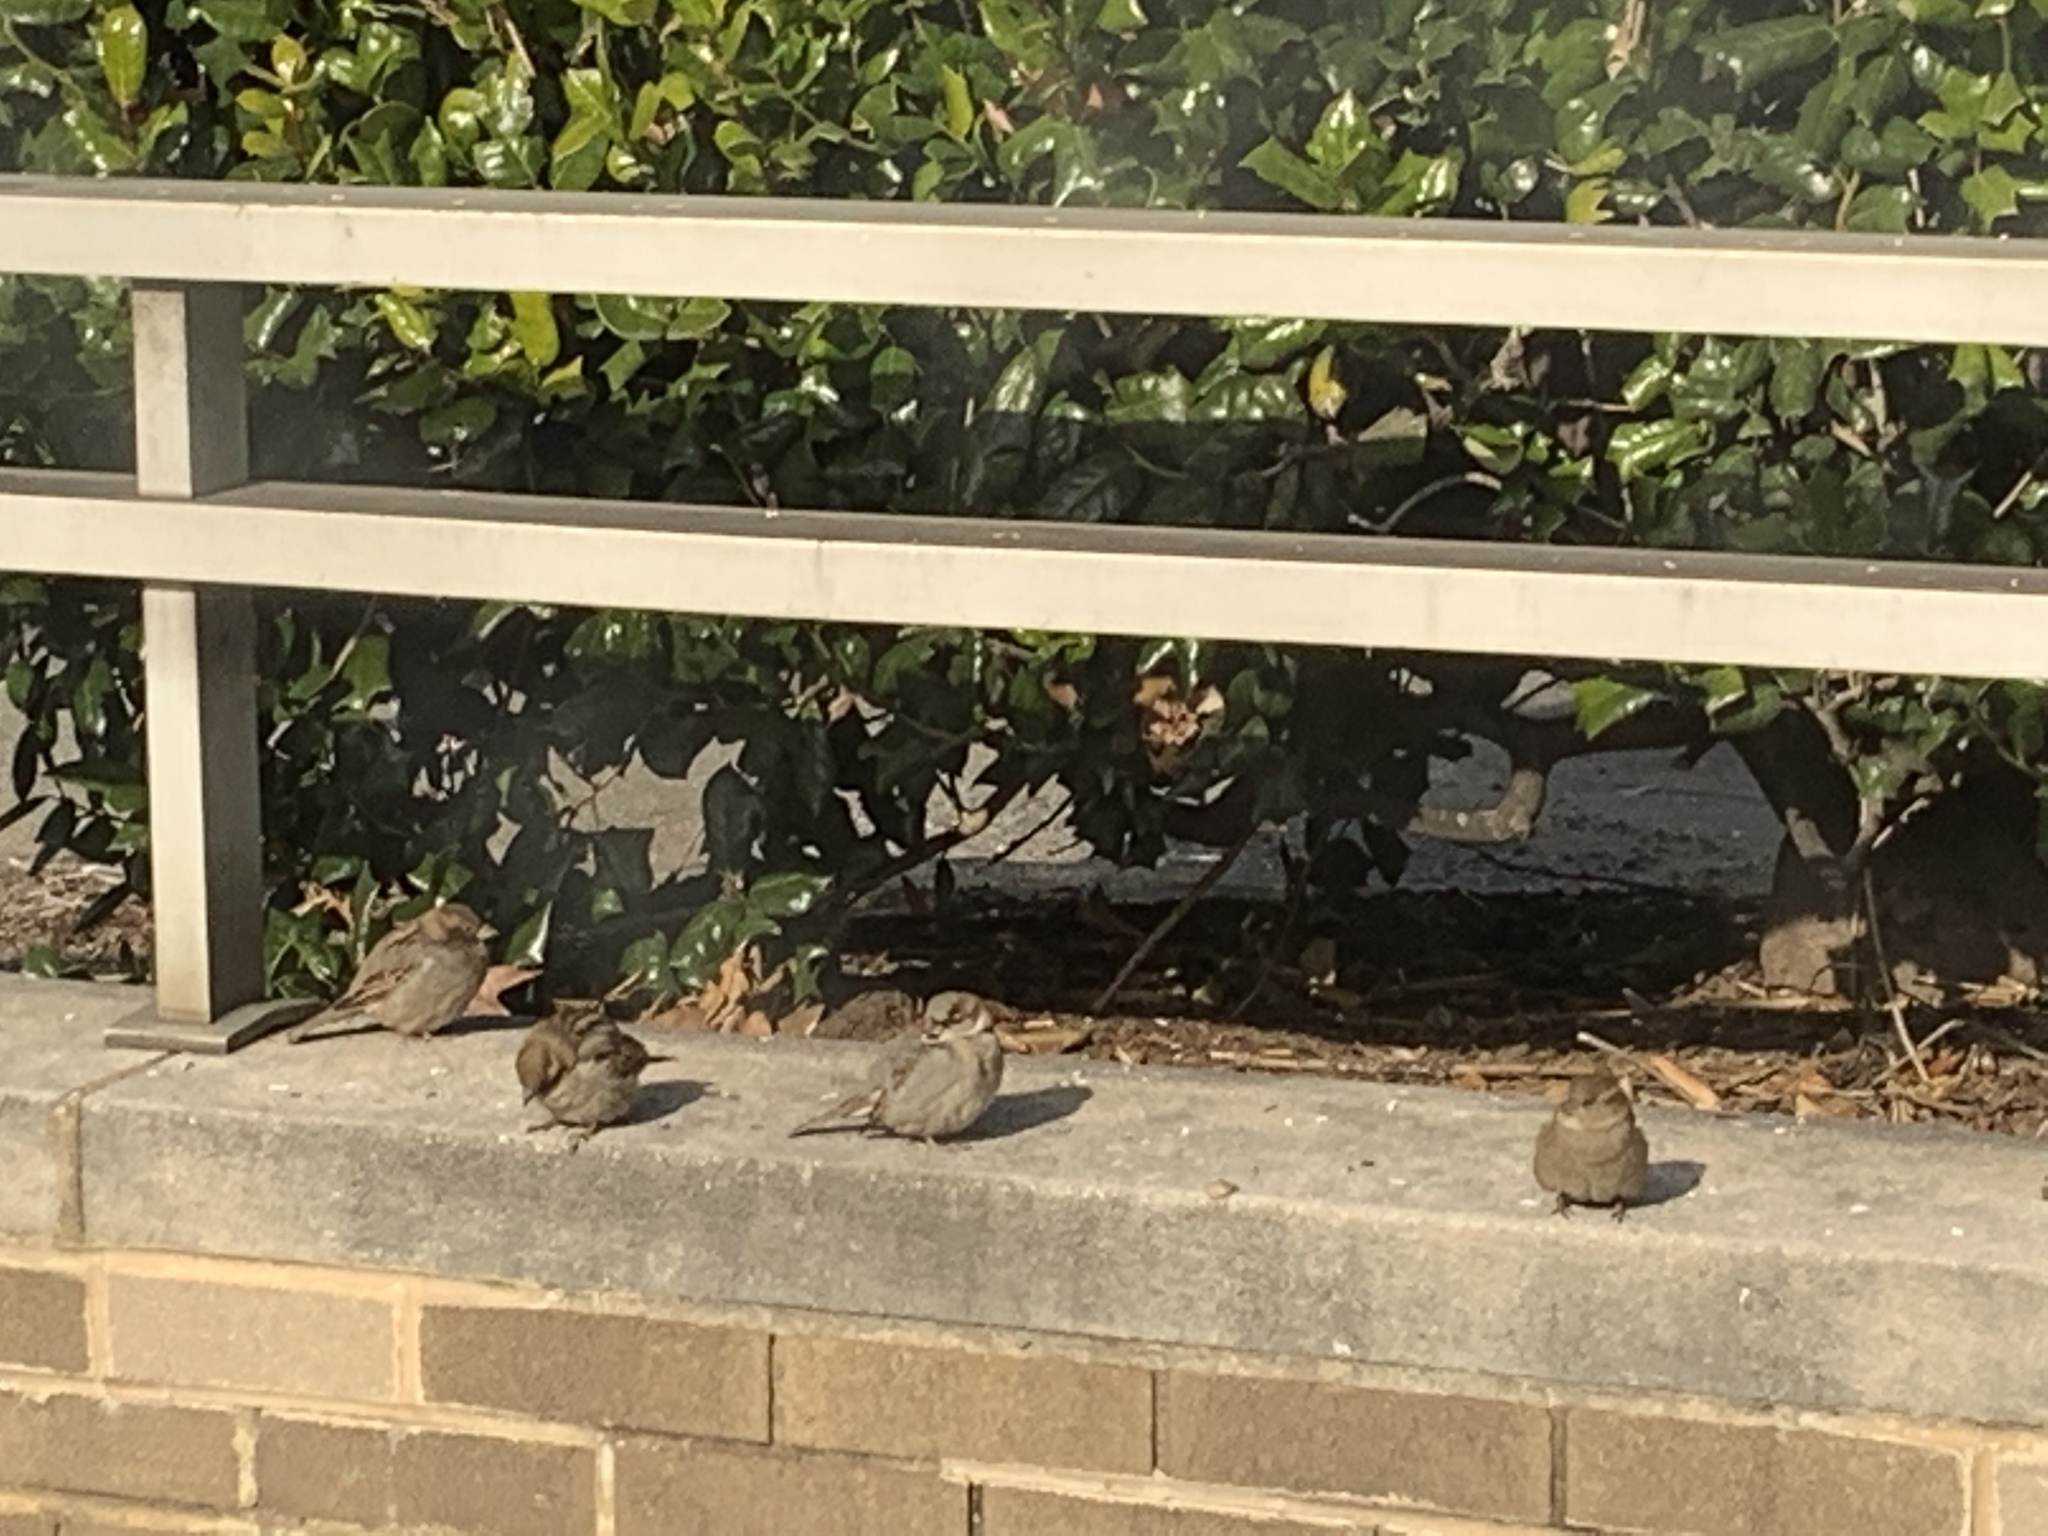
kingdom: Animalia
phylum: Chordata
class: Aves
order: Passeriformes
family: Passeridae
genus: Passer
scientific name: Passer domesticus
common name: House sparrow
